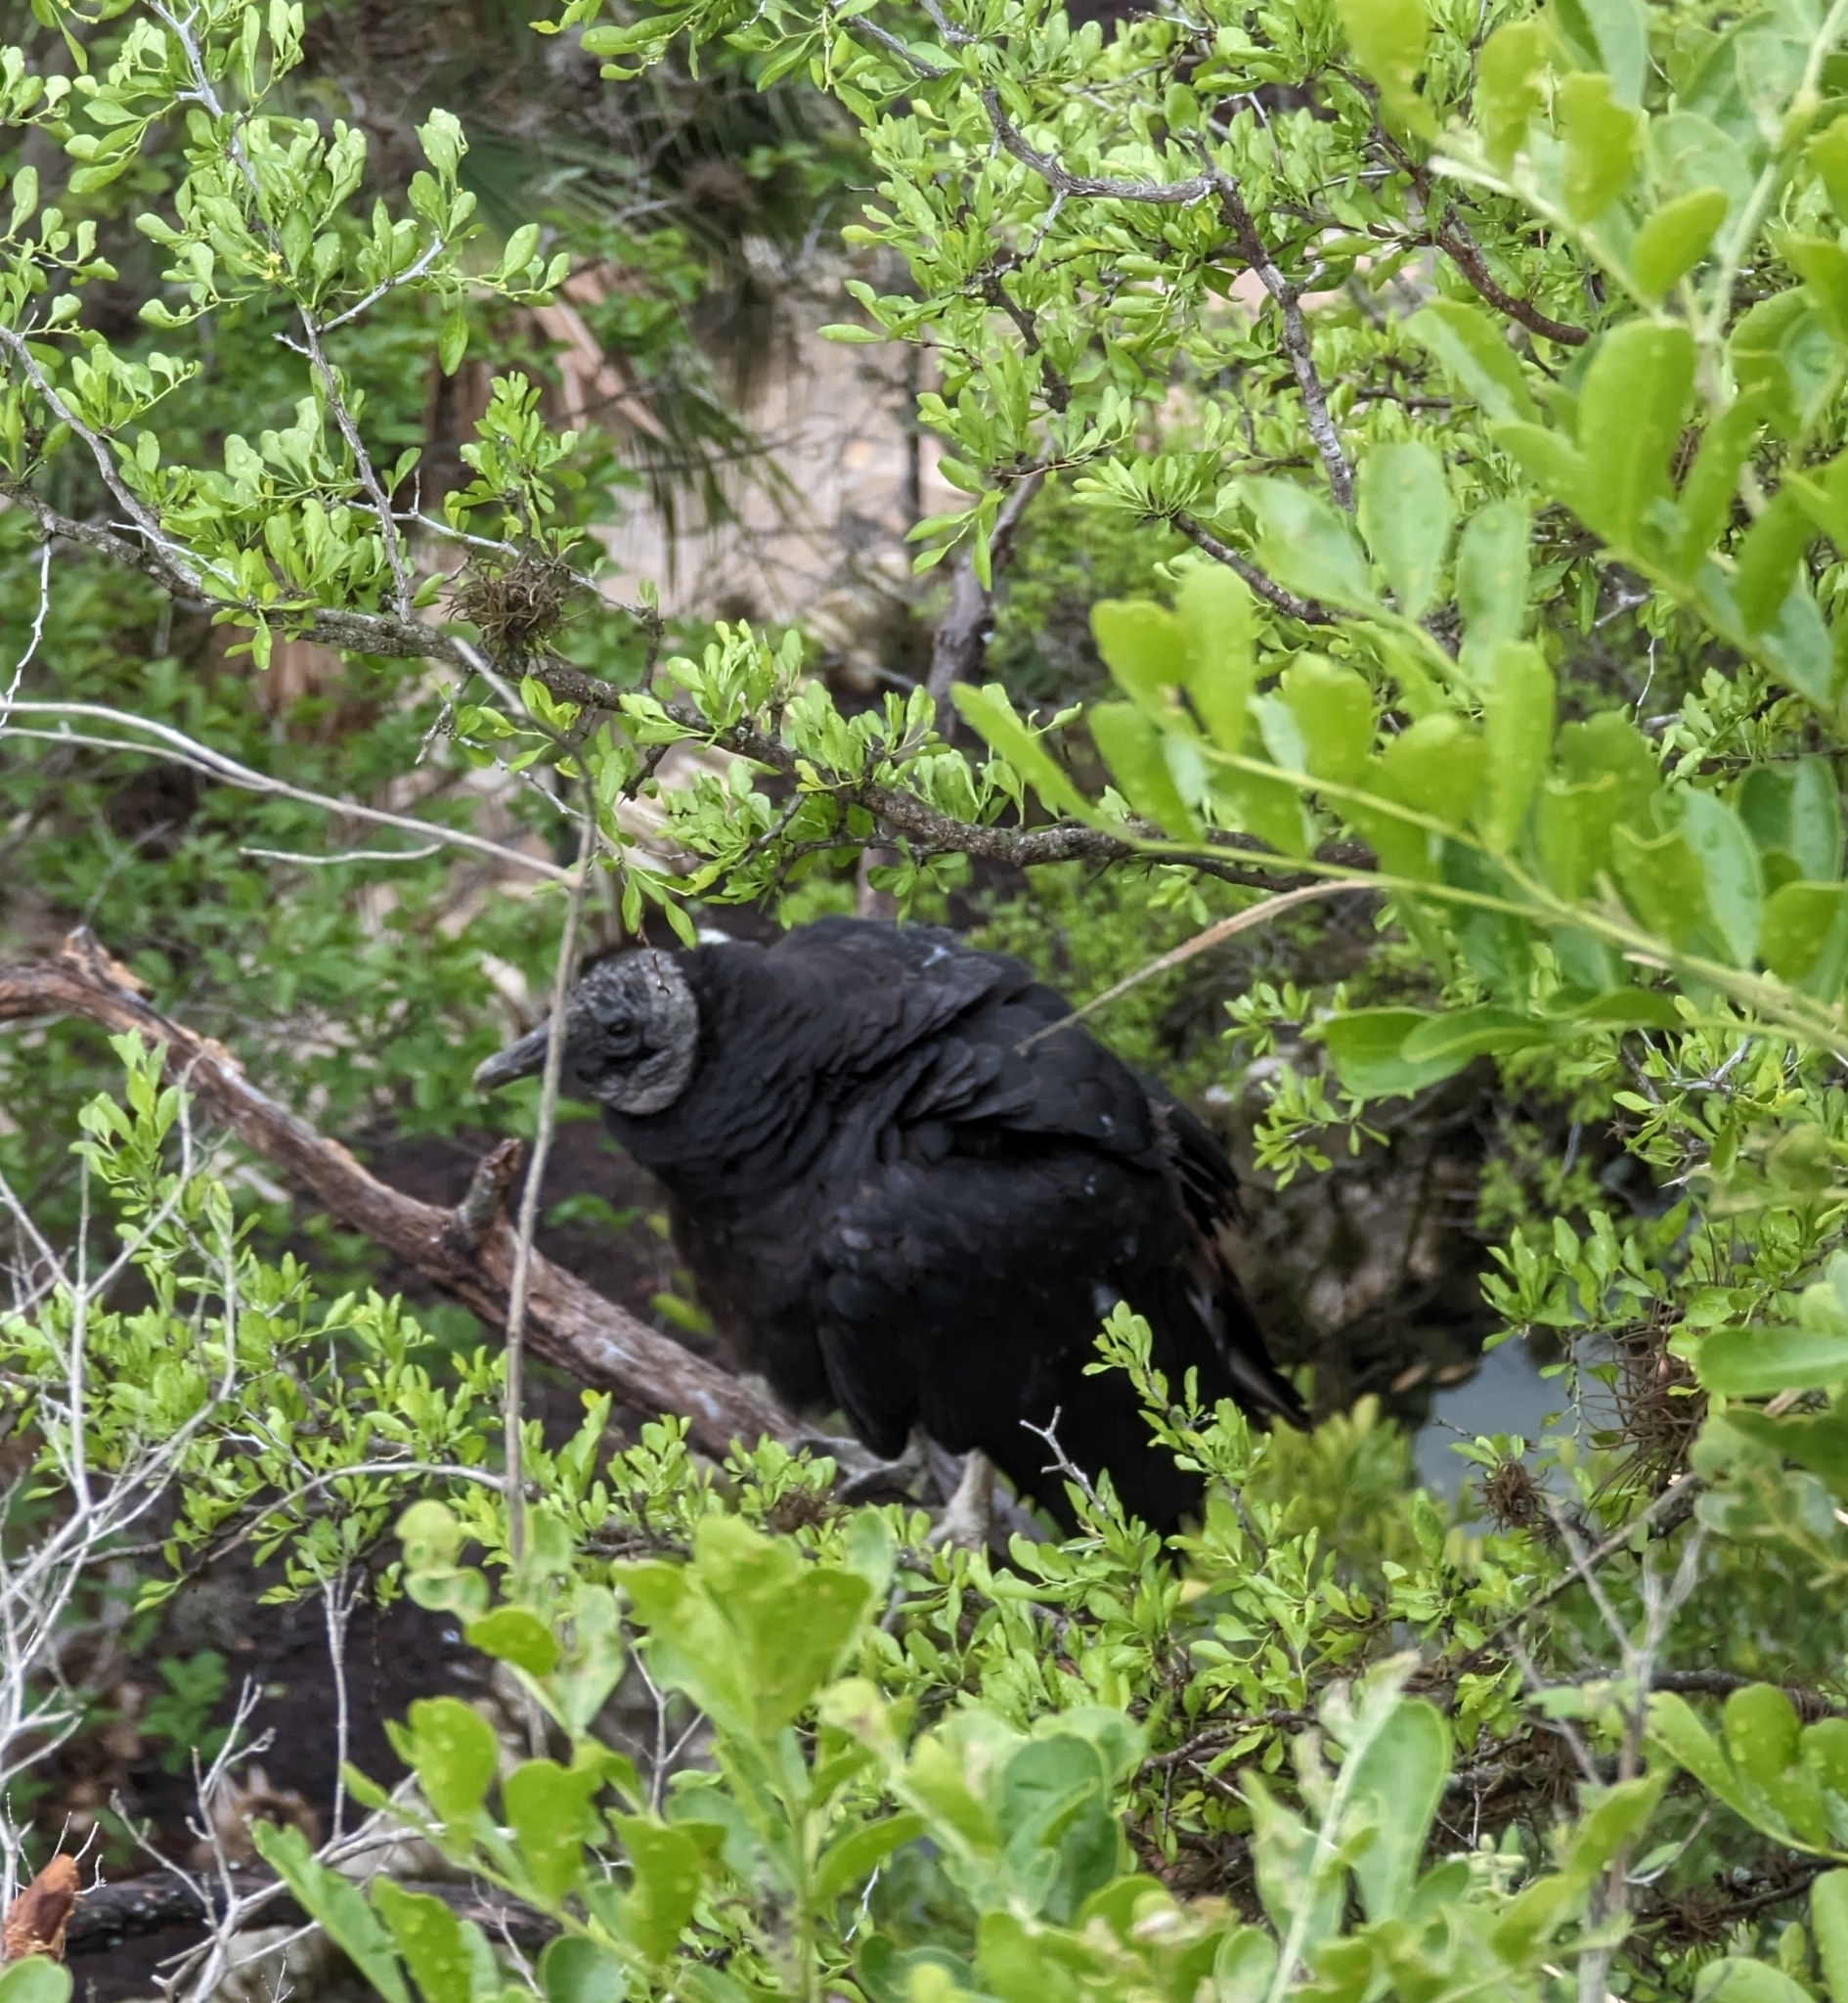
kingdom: Animalia
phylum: Chordata
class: Aves
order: Accipitriformes
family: Cathartidae
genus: Coragyps
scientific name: Coragyps atratus
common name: Black vulture
